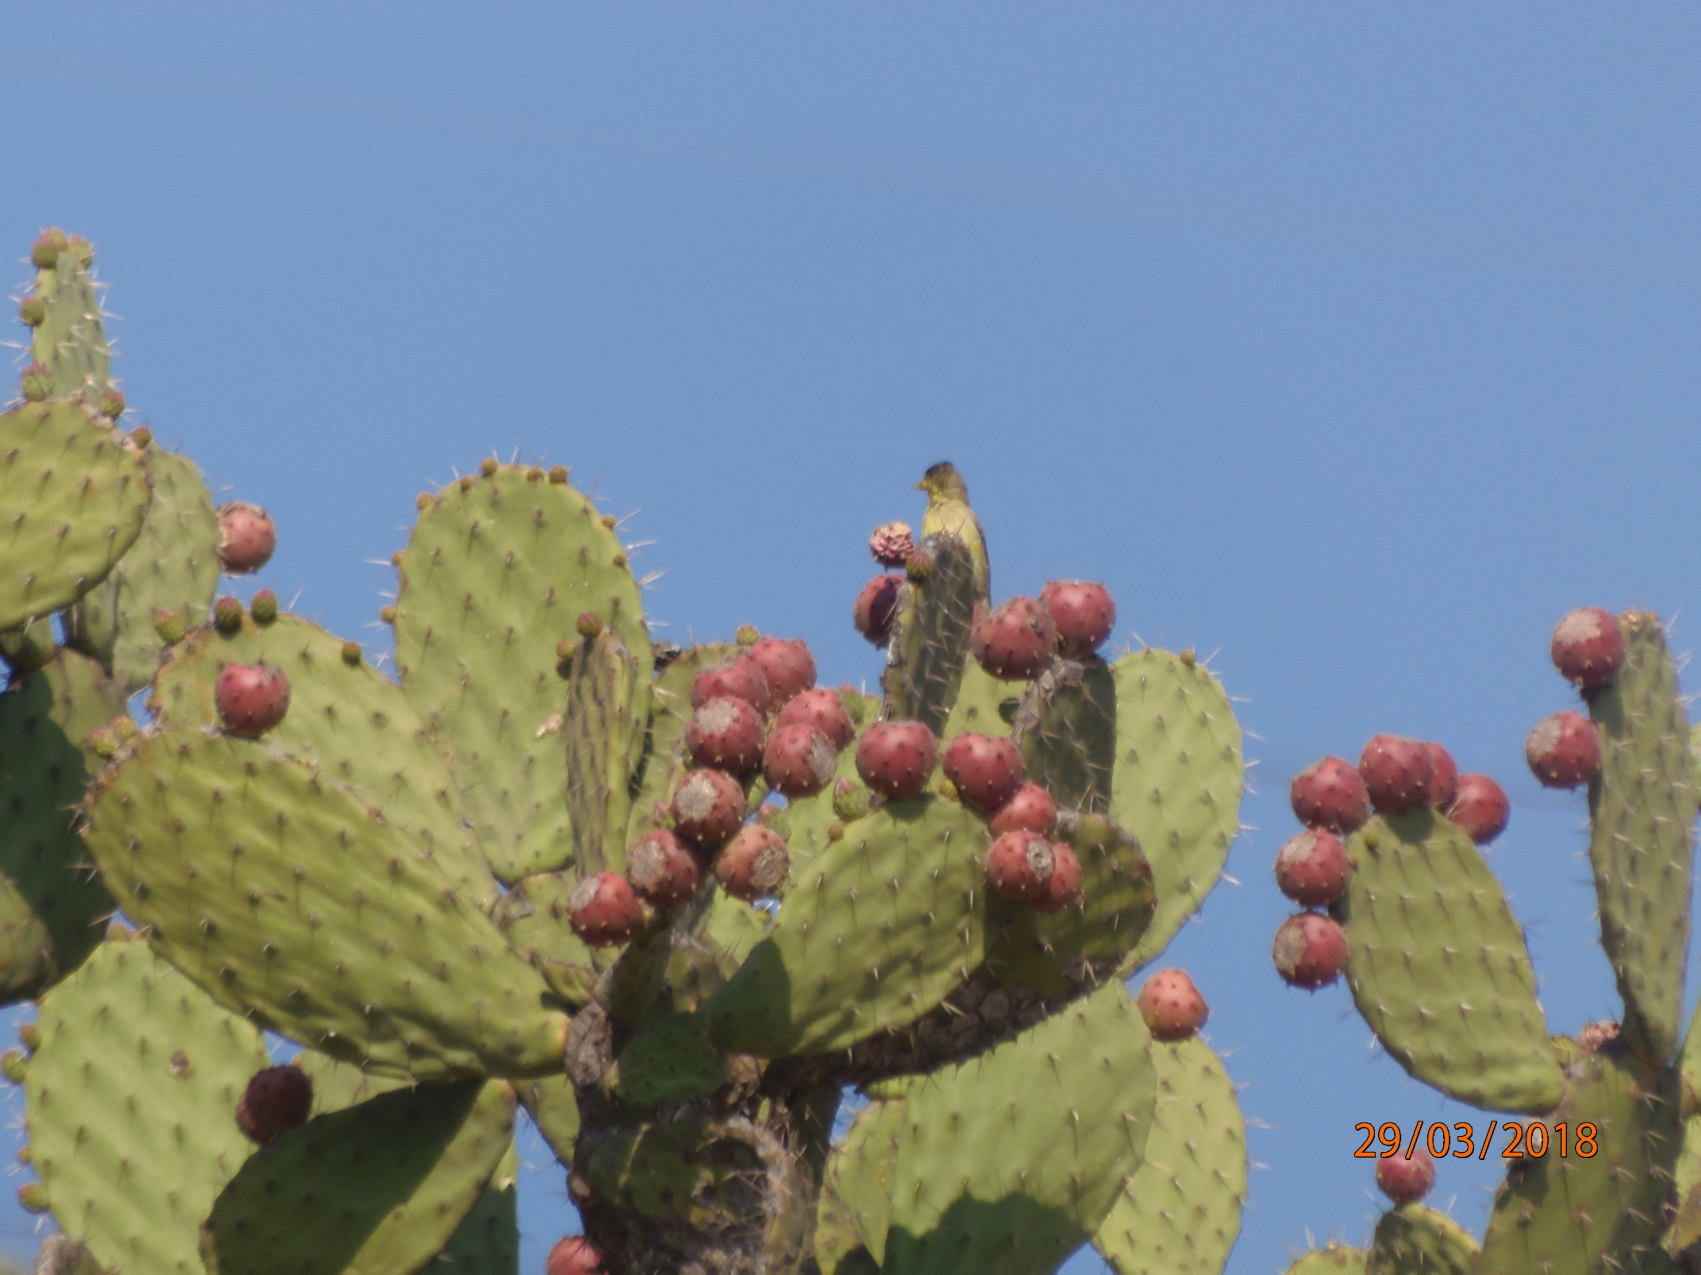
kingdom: Animalia
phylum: Chordata
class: Aves
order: Passeriformes
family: Fringillidae
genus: Spinus
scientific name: Spinus psaltria
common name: Lesser goldfinch
